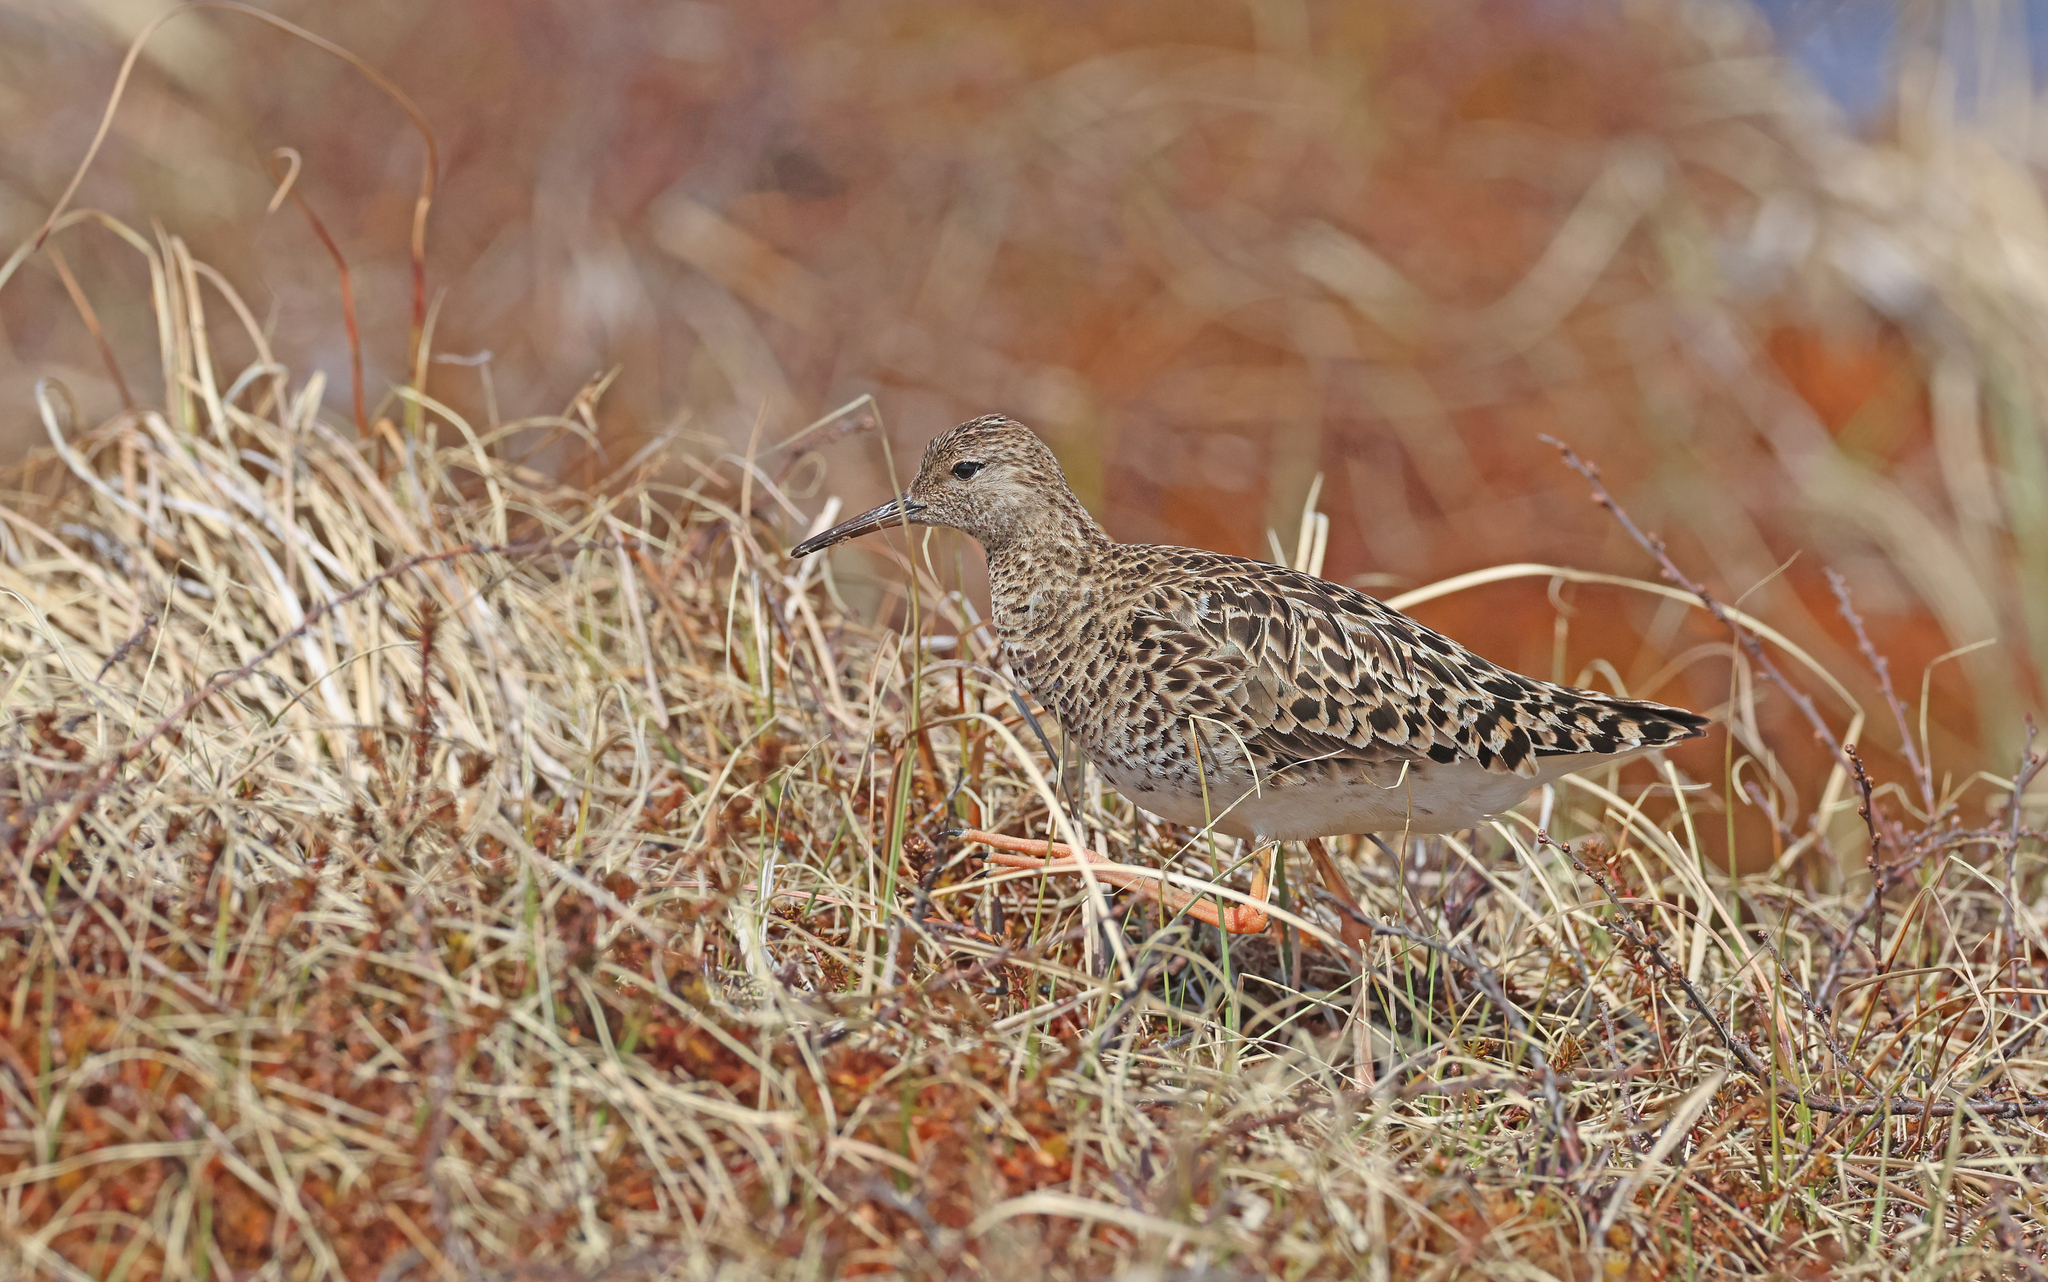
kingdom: Animalia
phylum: Chordata
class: Aves
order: Charadriiformes
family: Scolopacidae
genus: Calidris
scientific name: Calidris pugnax
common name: Ruff
